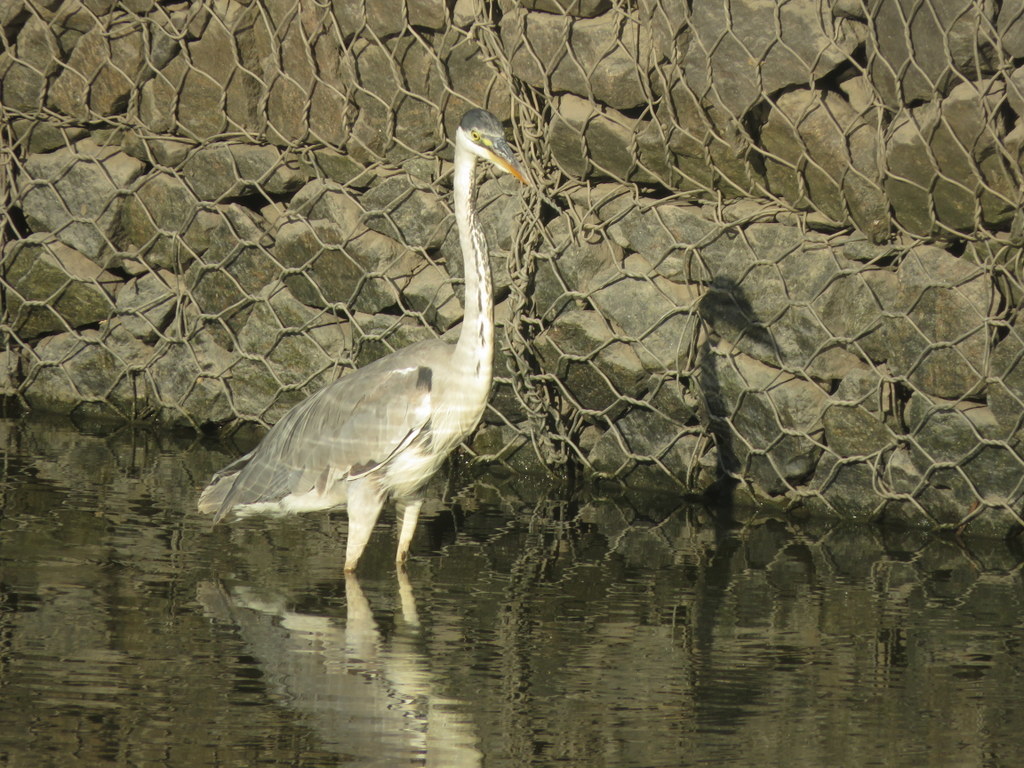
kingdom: Animalia
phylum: Chordata
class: Aves
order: Pelecaniformes
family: Ardeidae
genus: Ardea
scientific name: Ardea cocoi
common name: Cocoi heron
